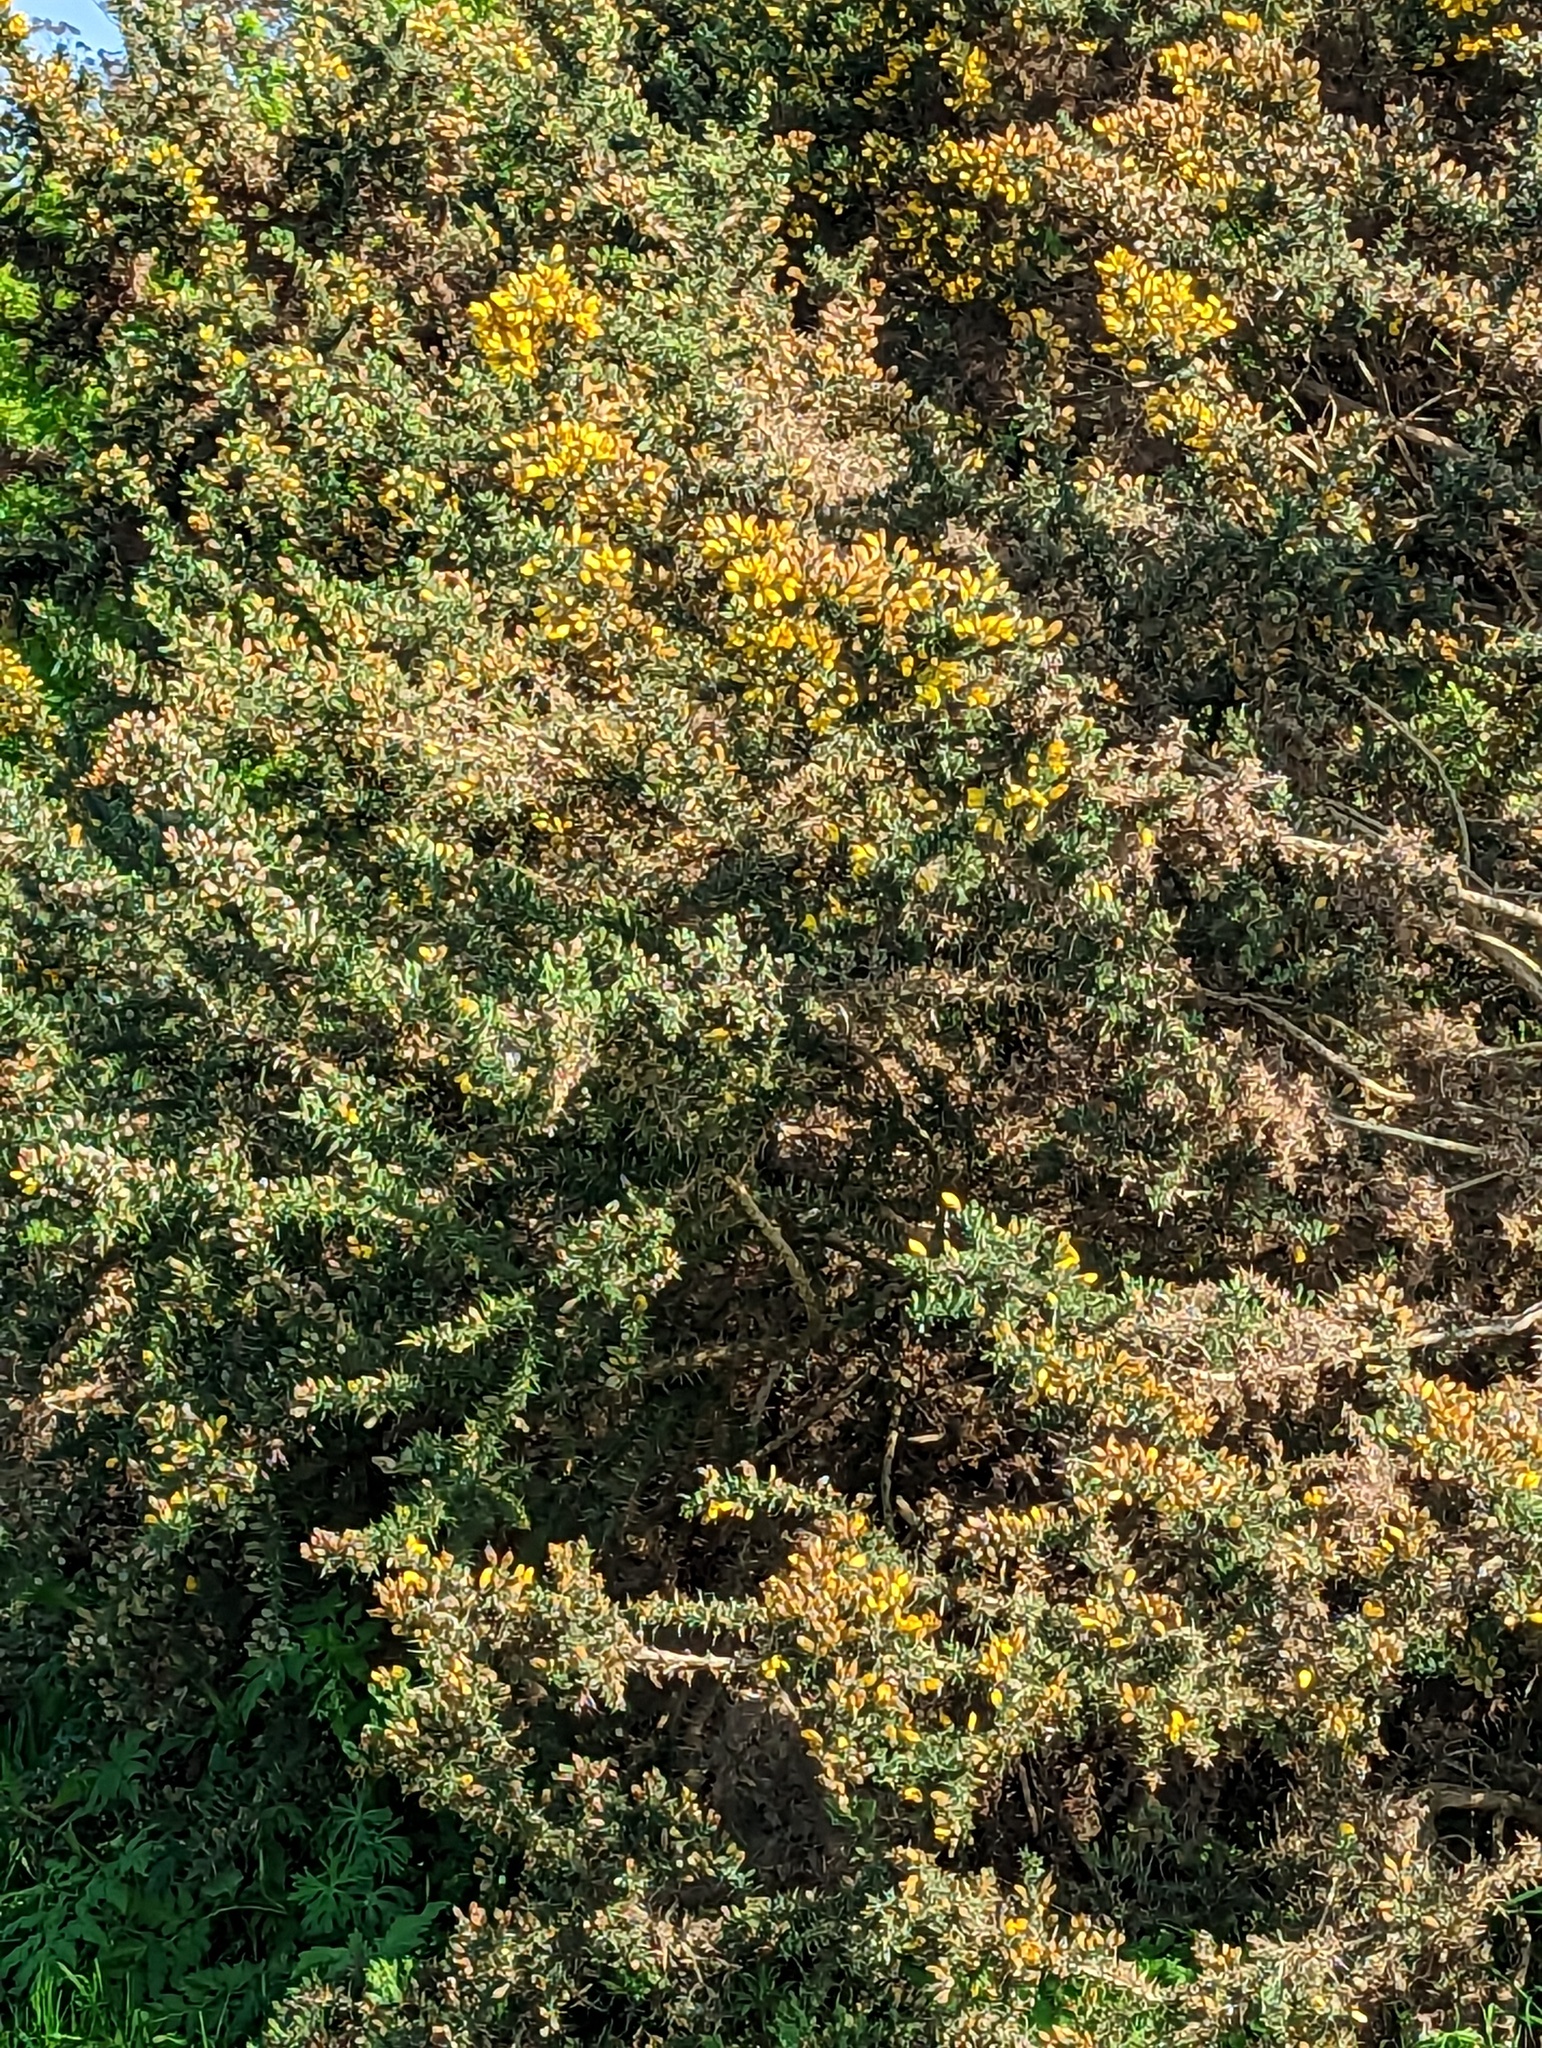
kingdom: Plantae
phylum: Tracheophyta
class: Magnoliopsida
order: Fabales
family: Fabaceae
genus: Ulex
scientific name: Ulex europaeus
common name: Common gorse
